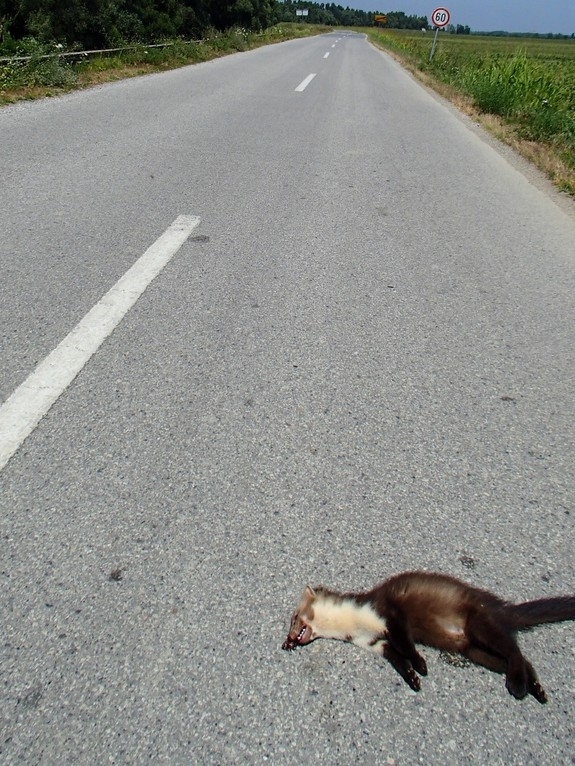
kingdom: Animalia
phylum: Chordata
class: Mammalia
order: Carnivora
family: Mustelidae
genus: Martes
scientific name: Martes foina
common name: Beech marten
